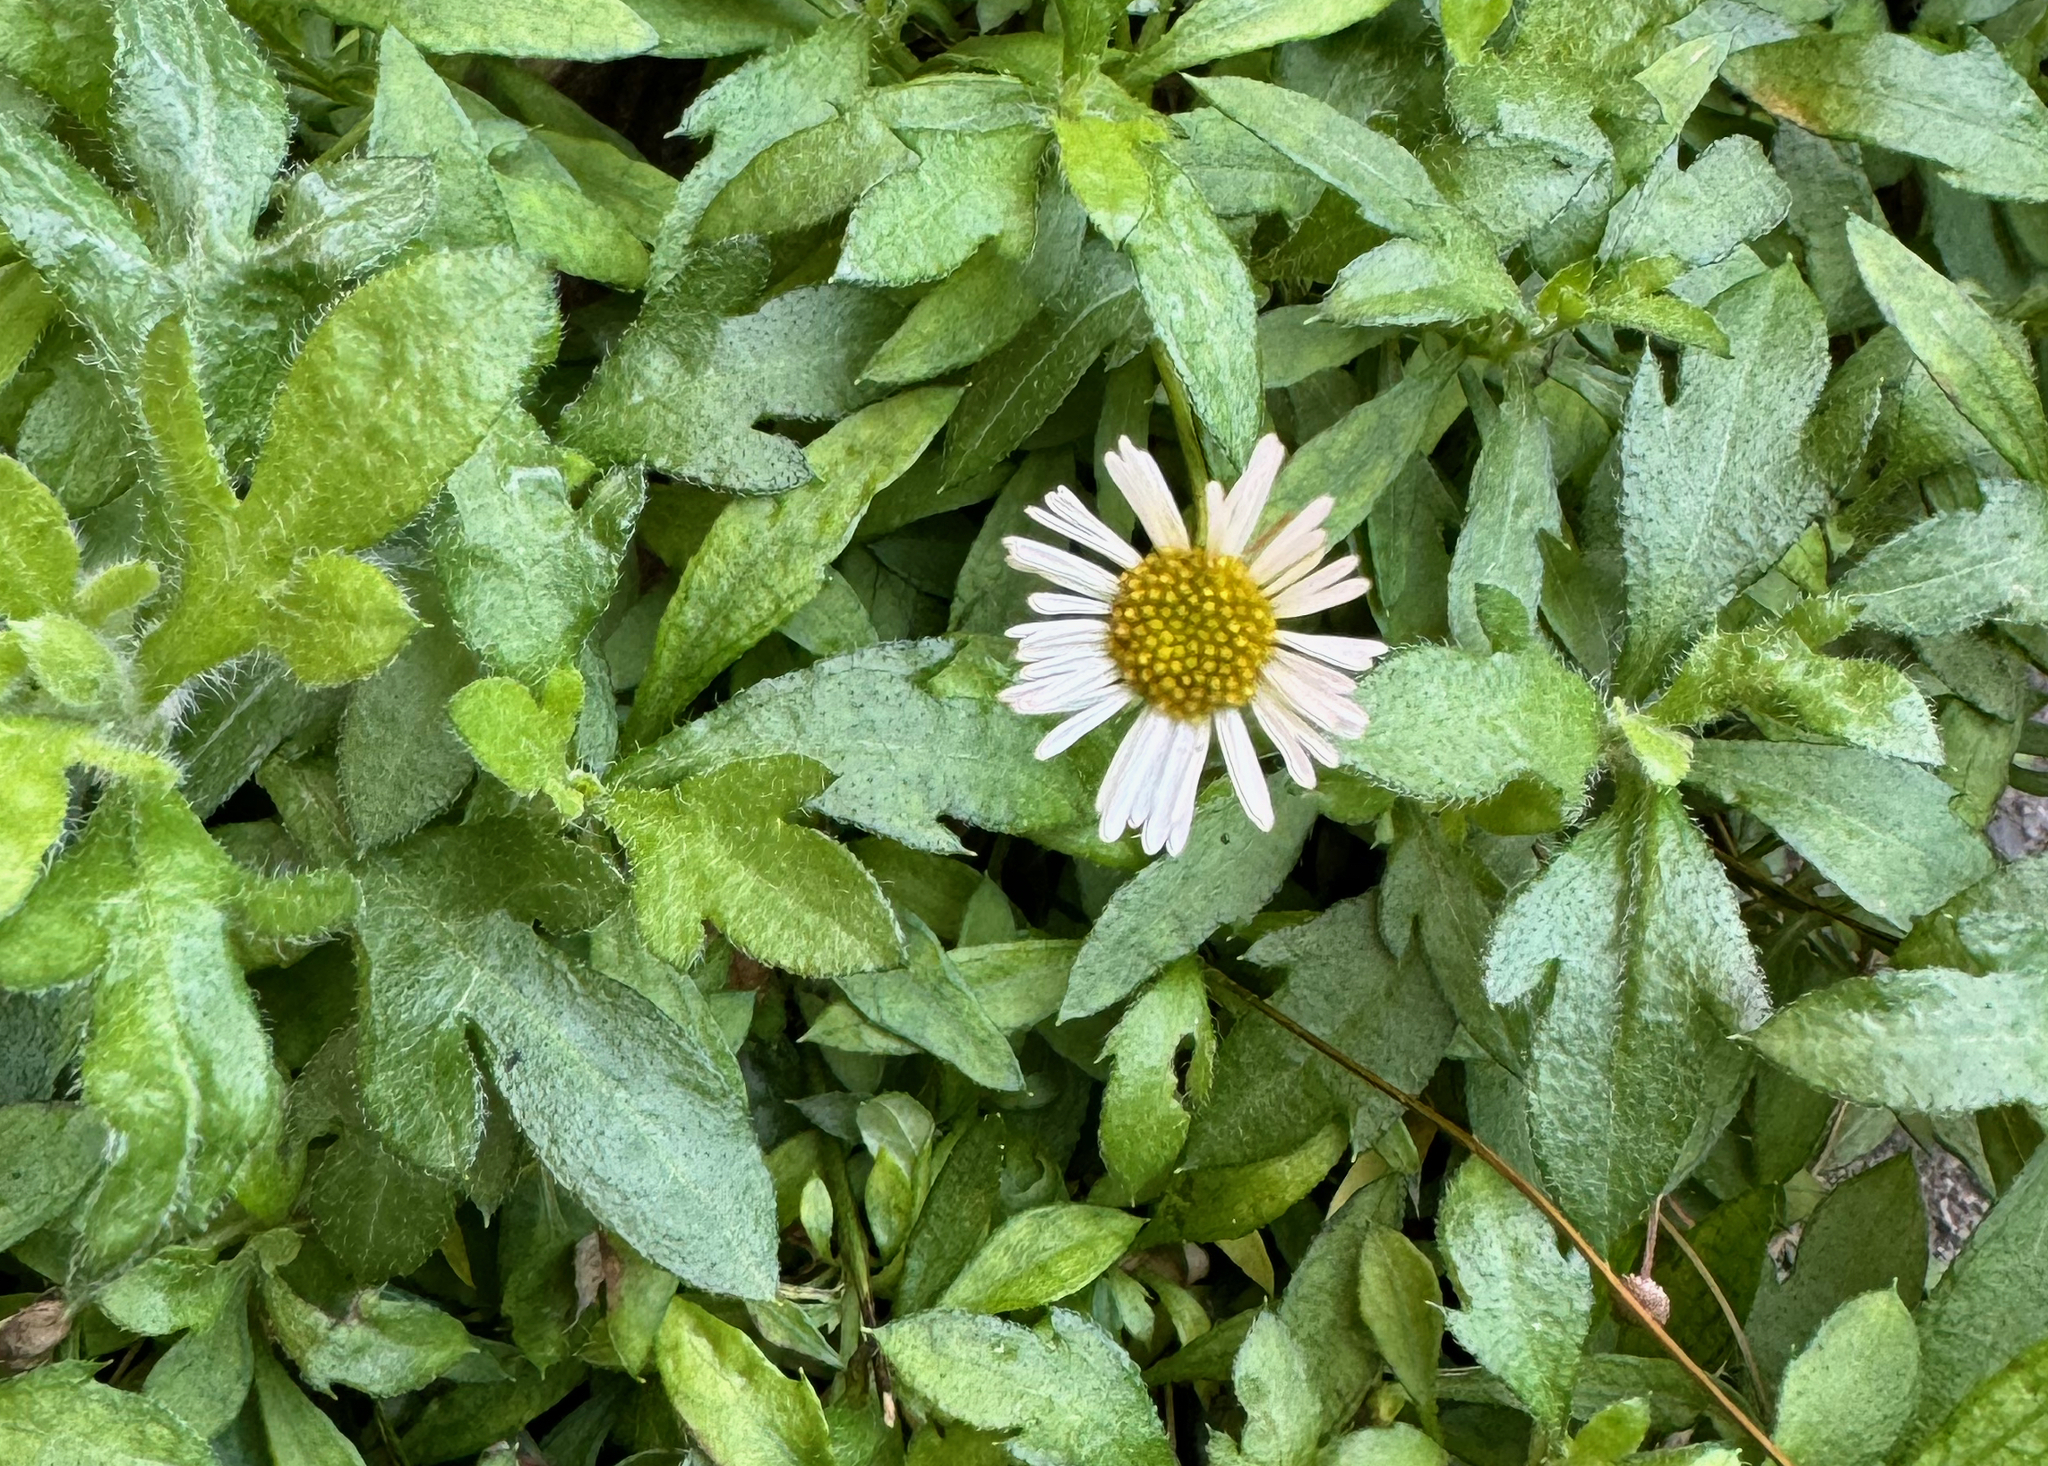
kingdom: Plantae
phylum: Tracheophyta
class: Magnoliopsida
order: Asterales
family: Asteraceae
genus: Erigeron
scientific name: Erigeron karvinskianus
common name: Mexican fleabane
